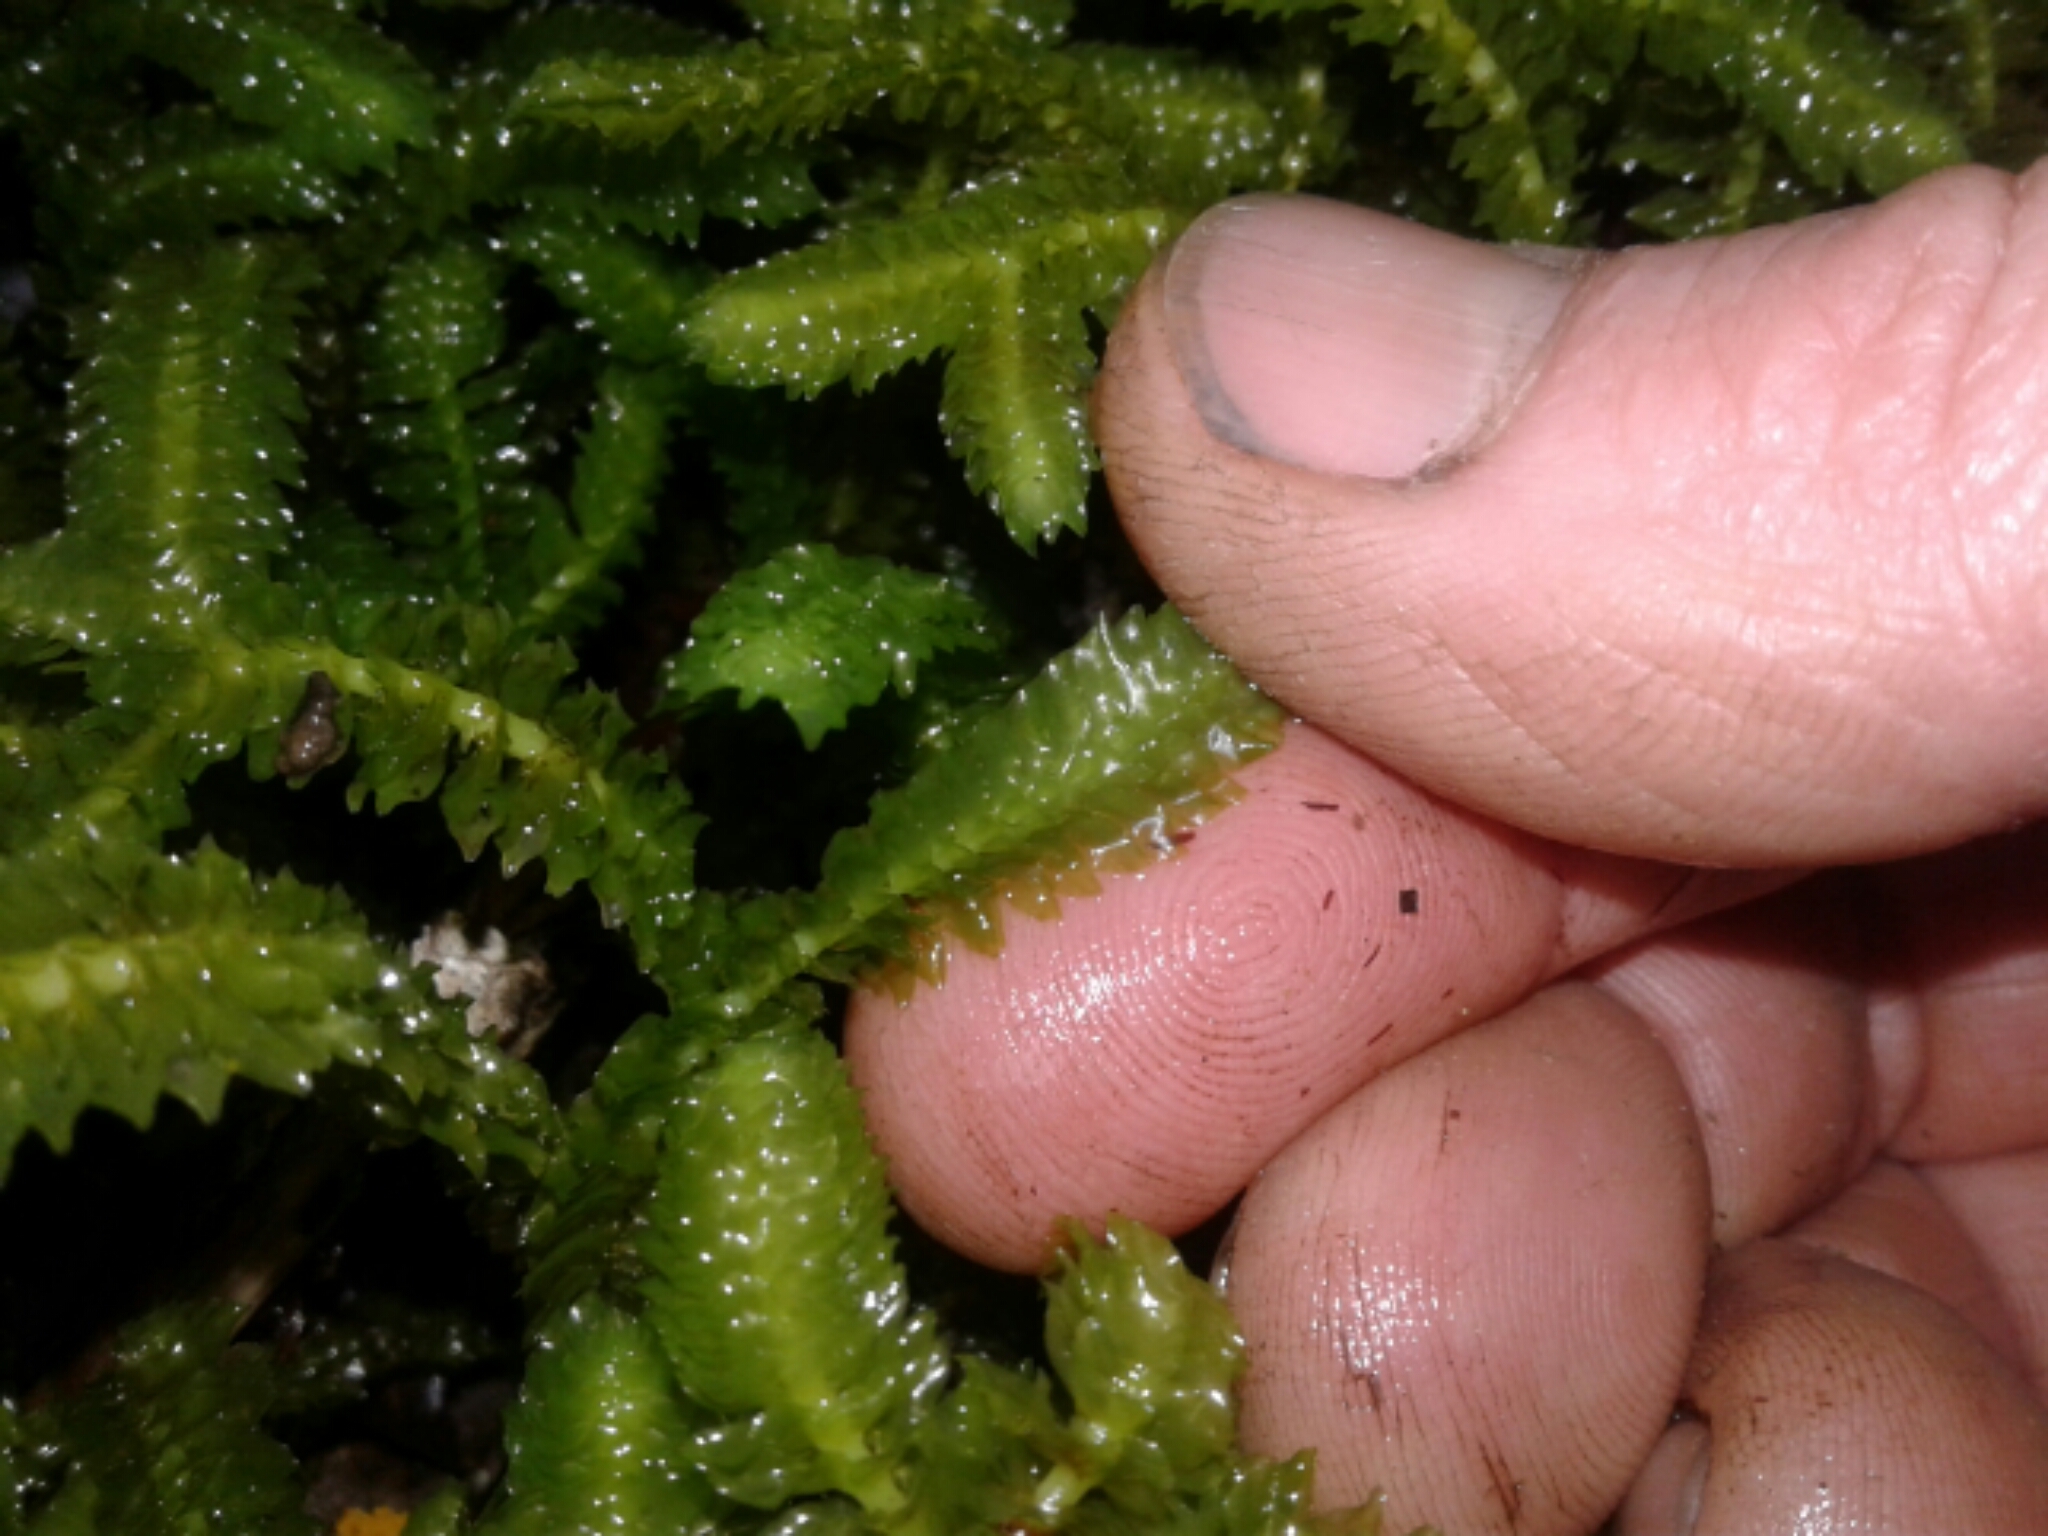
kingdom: Plantae
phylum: Marchantiophyta
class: Jungermanniopsida
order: Jungermanniales
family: Schistochilaceae
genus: Schistochila
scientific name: Schistochila
